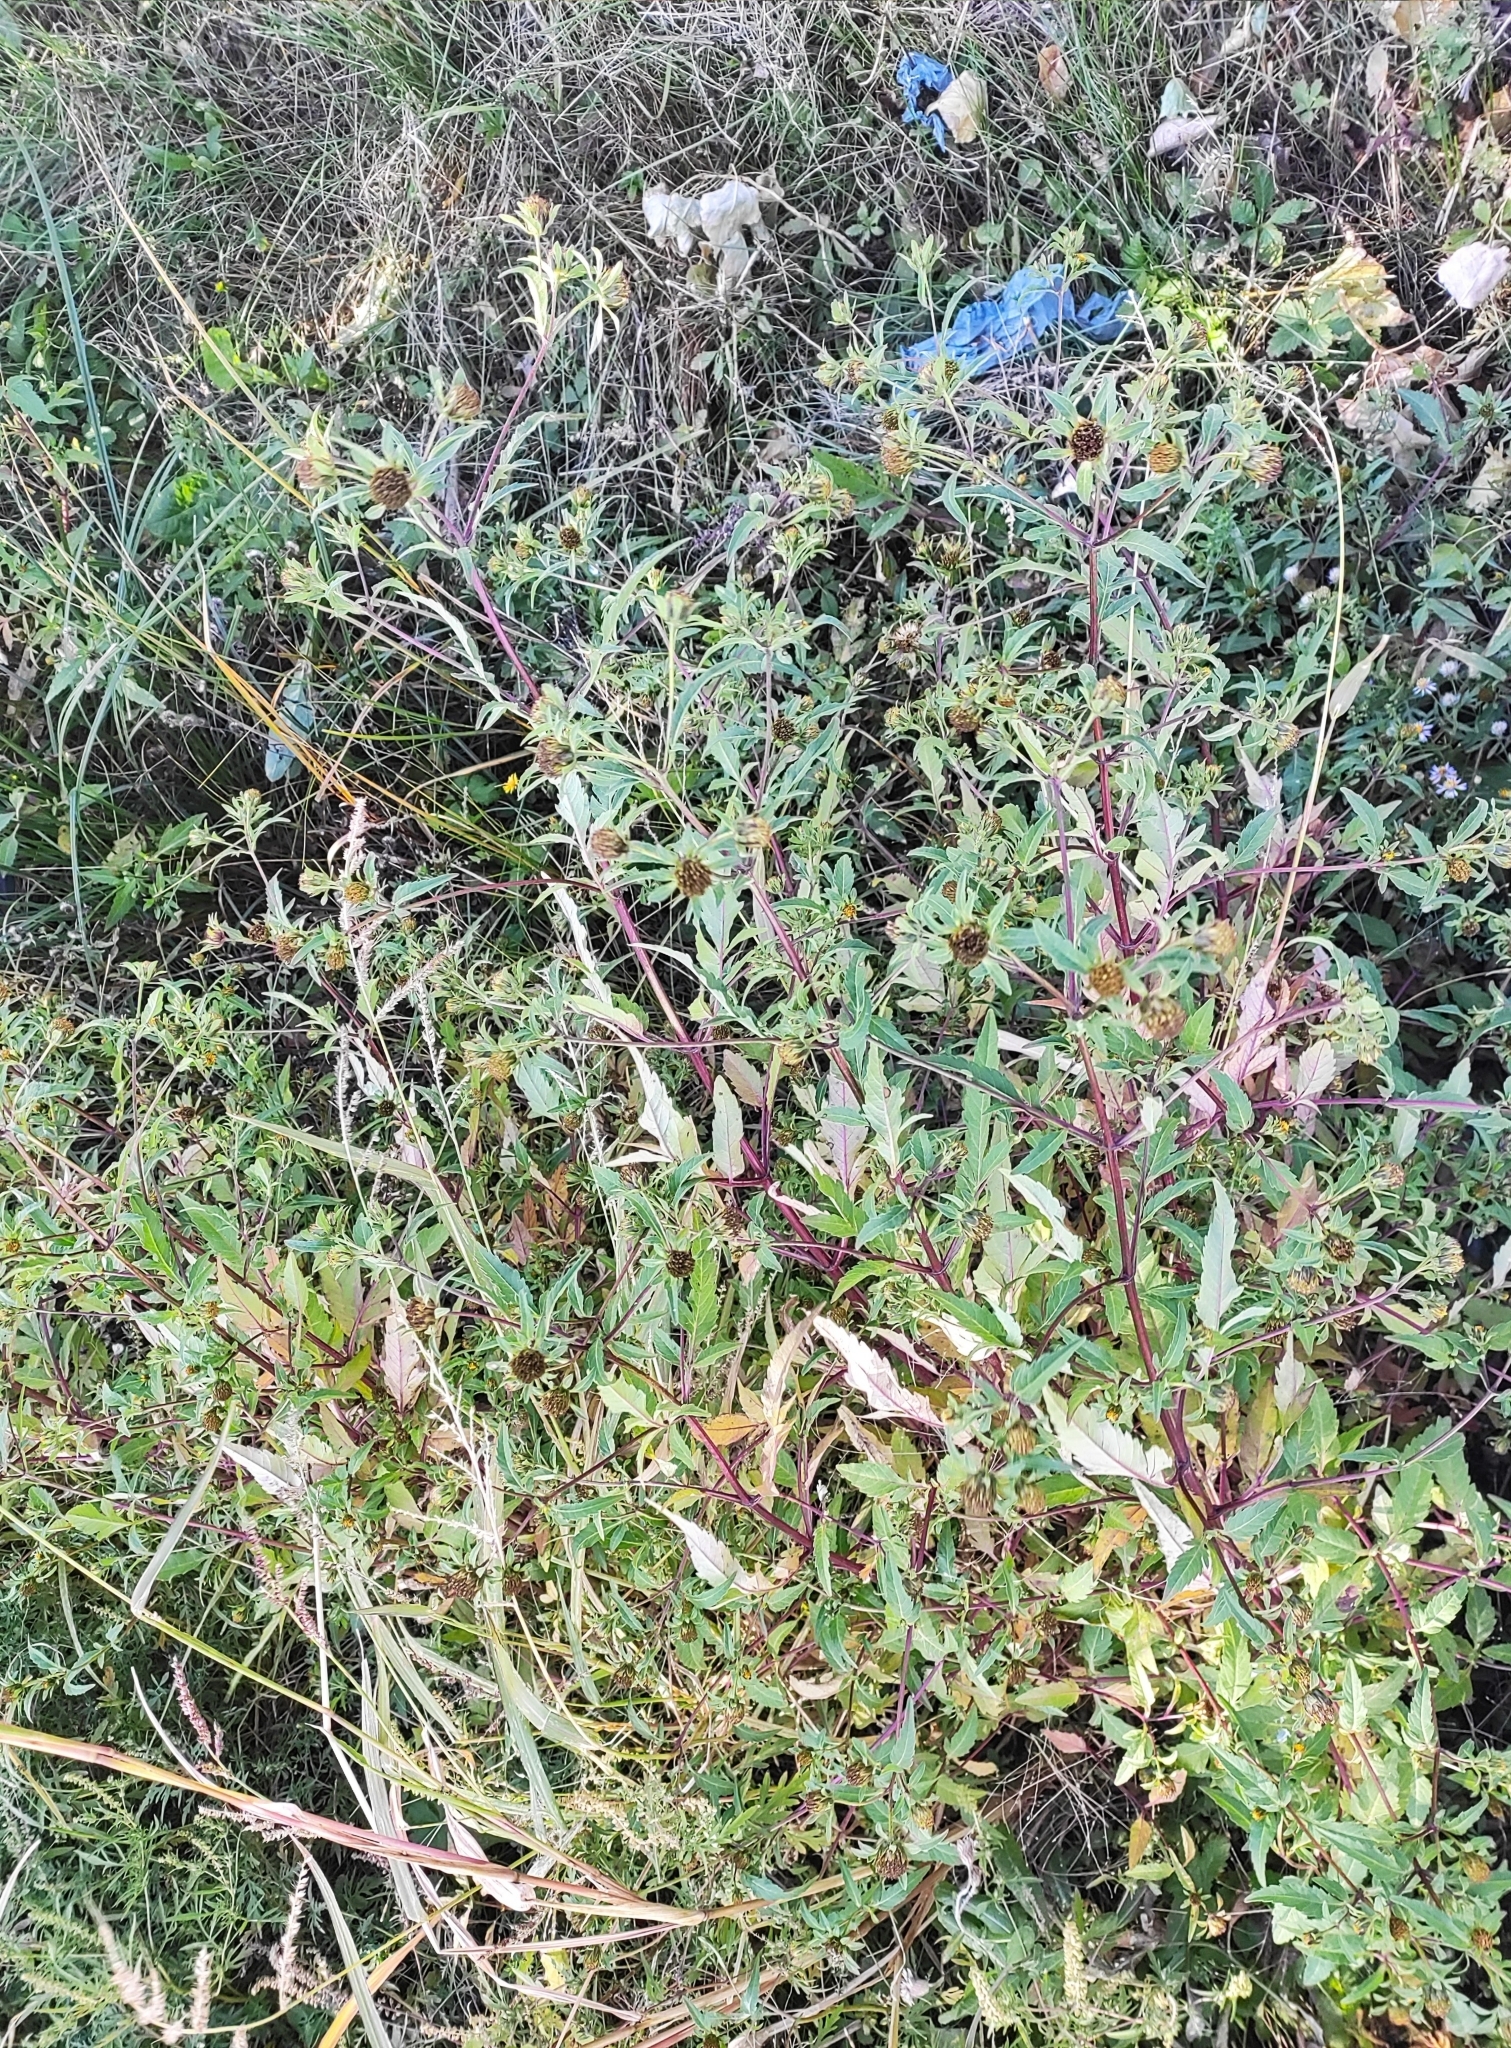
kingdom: Plantae
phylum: Tracheophyta
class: Magnoliopsida
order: Asterales
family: Asteraceae
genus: Bidens
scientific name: Bidens frondosa
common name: Beggarticks
